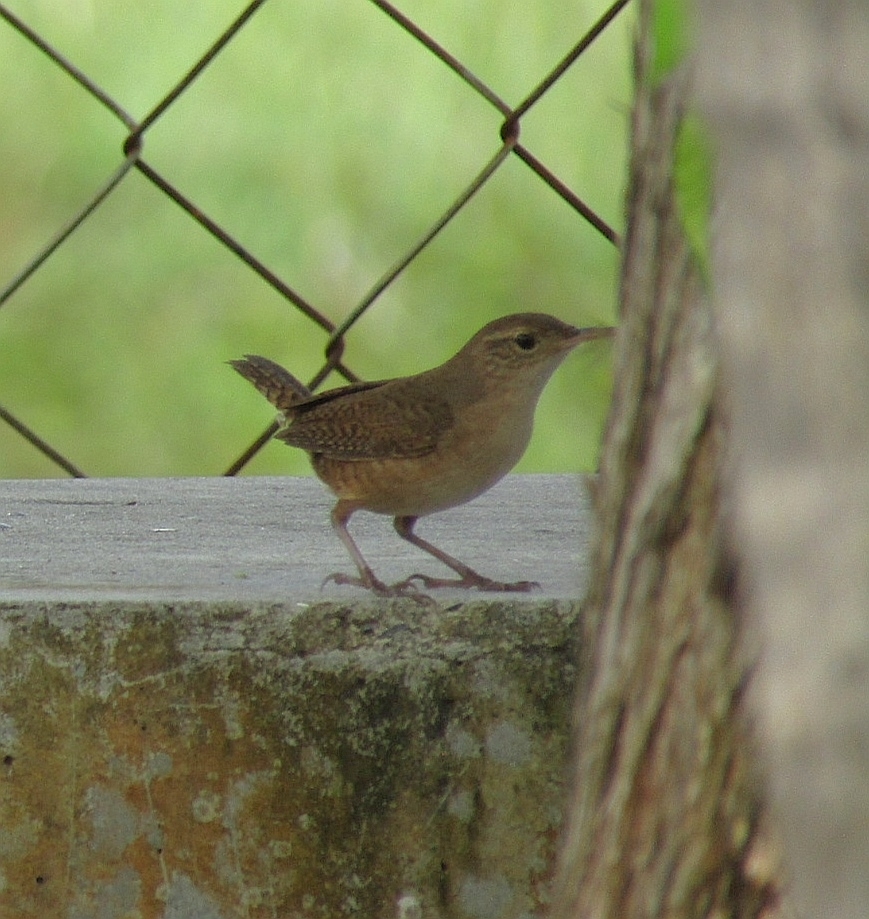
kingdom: Animalia
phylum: Chordata
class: Aves
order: Passeriformes
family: Troglodytidae
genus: Troglodytes
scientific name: Troglodytes aedon
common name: House wren
